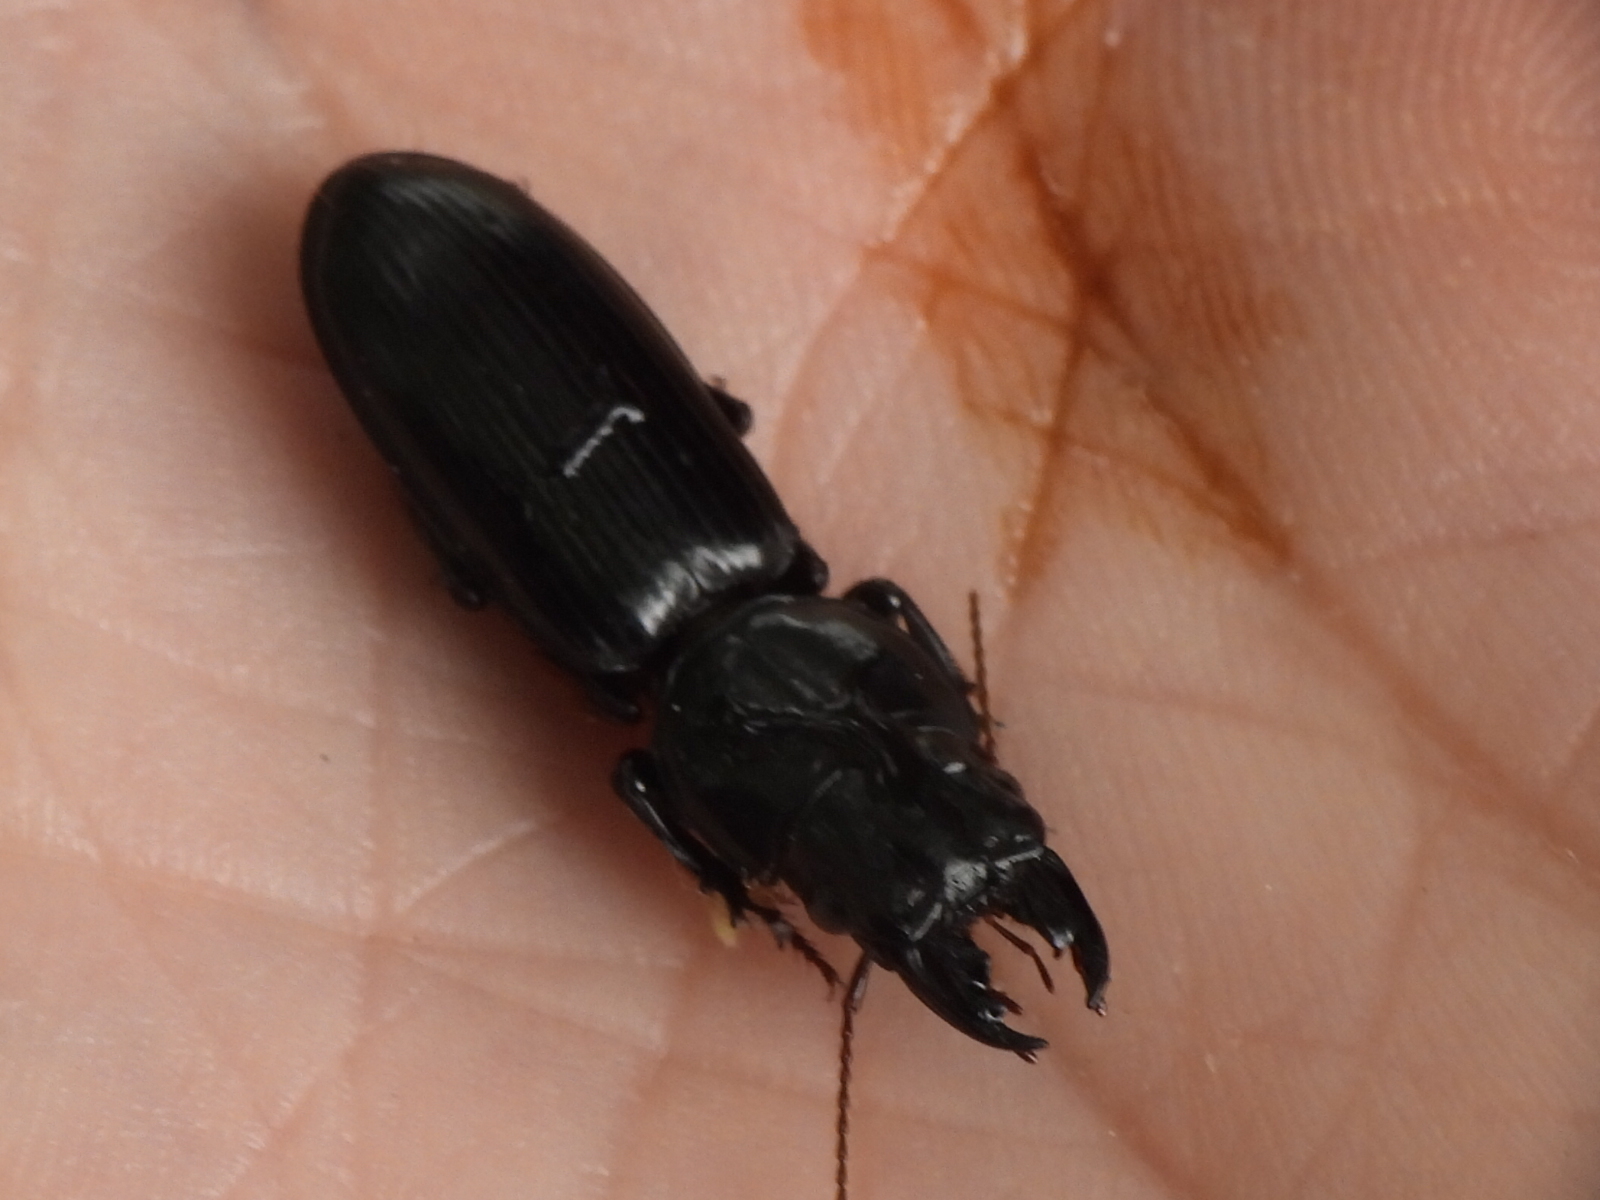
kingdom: Animalia
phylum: Arthropoda
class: Insecta
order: Coleoptera
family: Carabidae
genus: Scarites
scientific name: Scarites subterraneus
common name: Big-headed ground beetle
